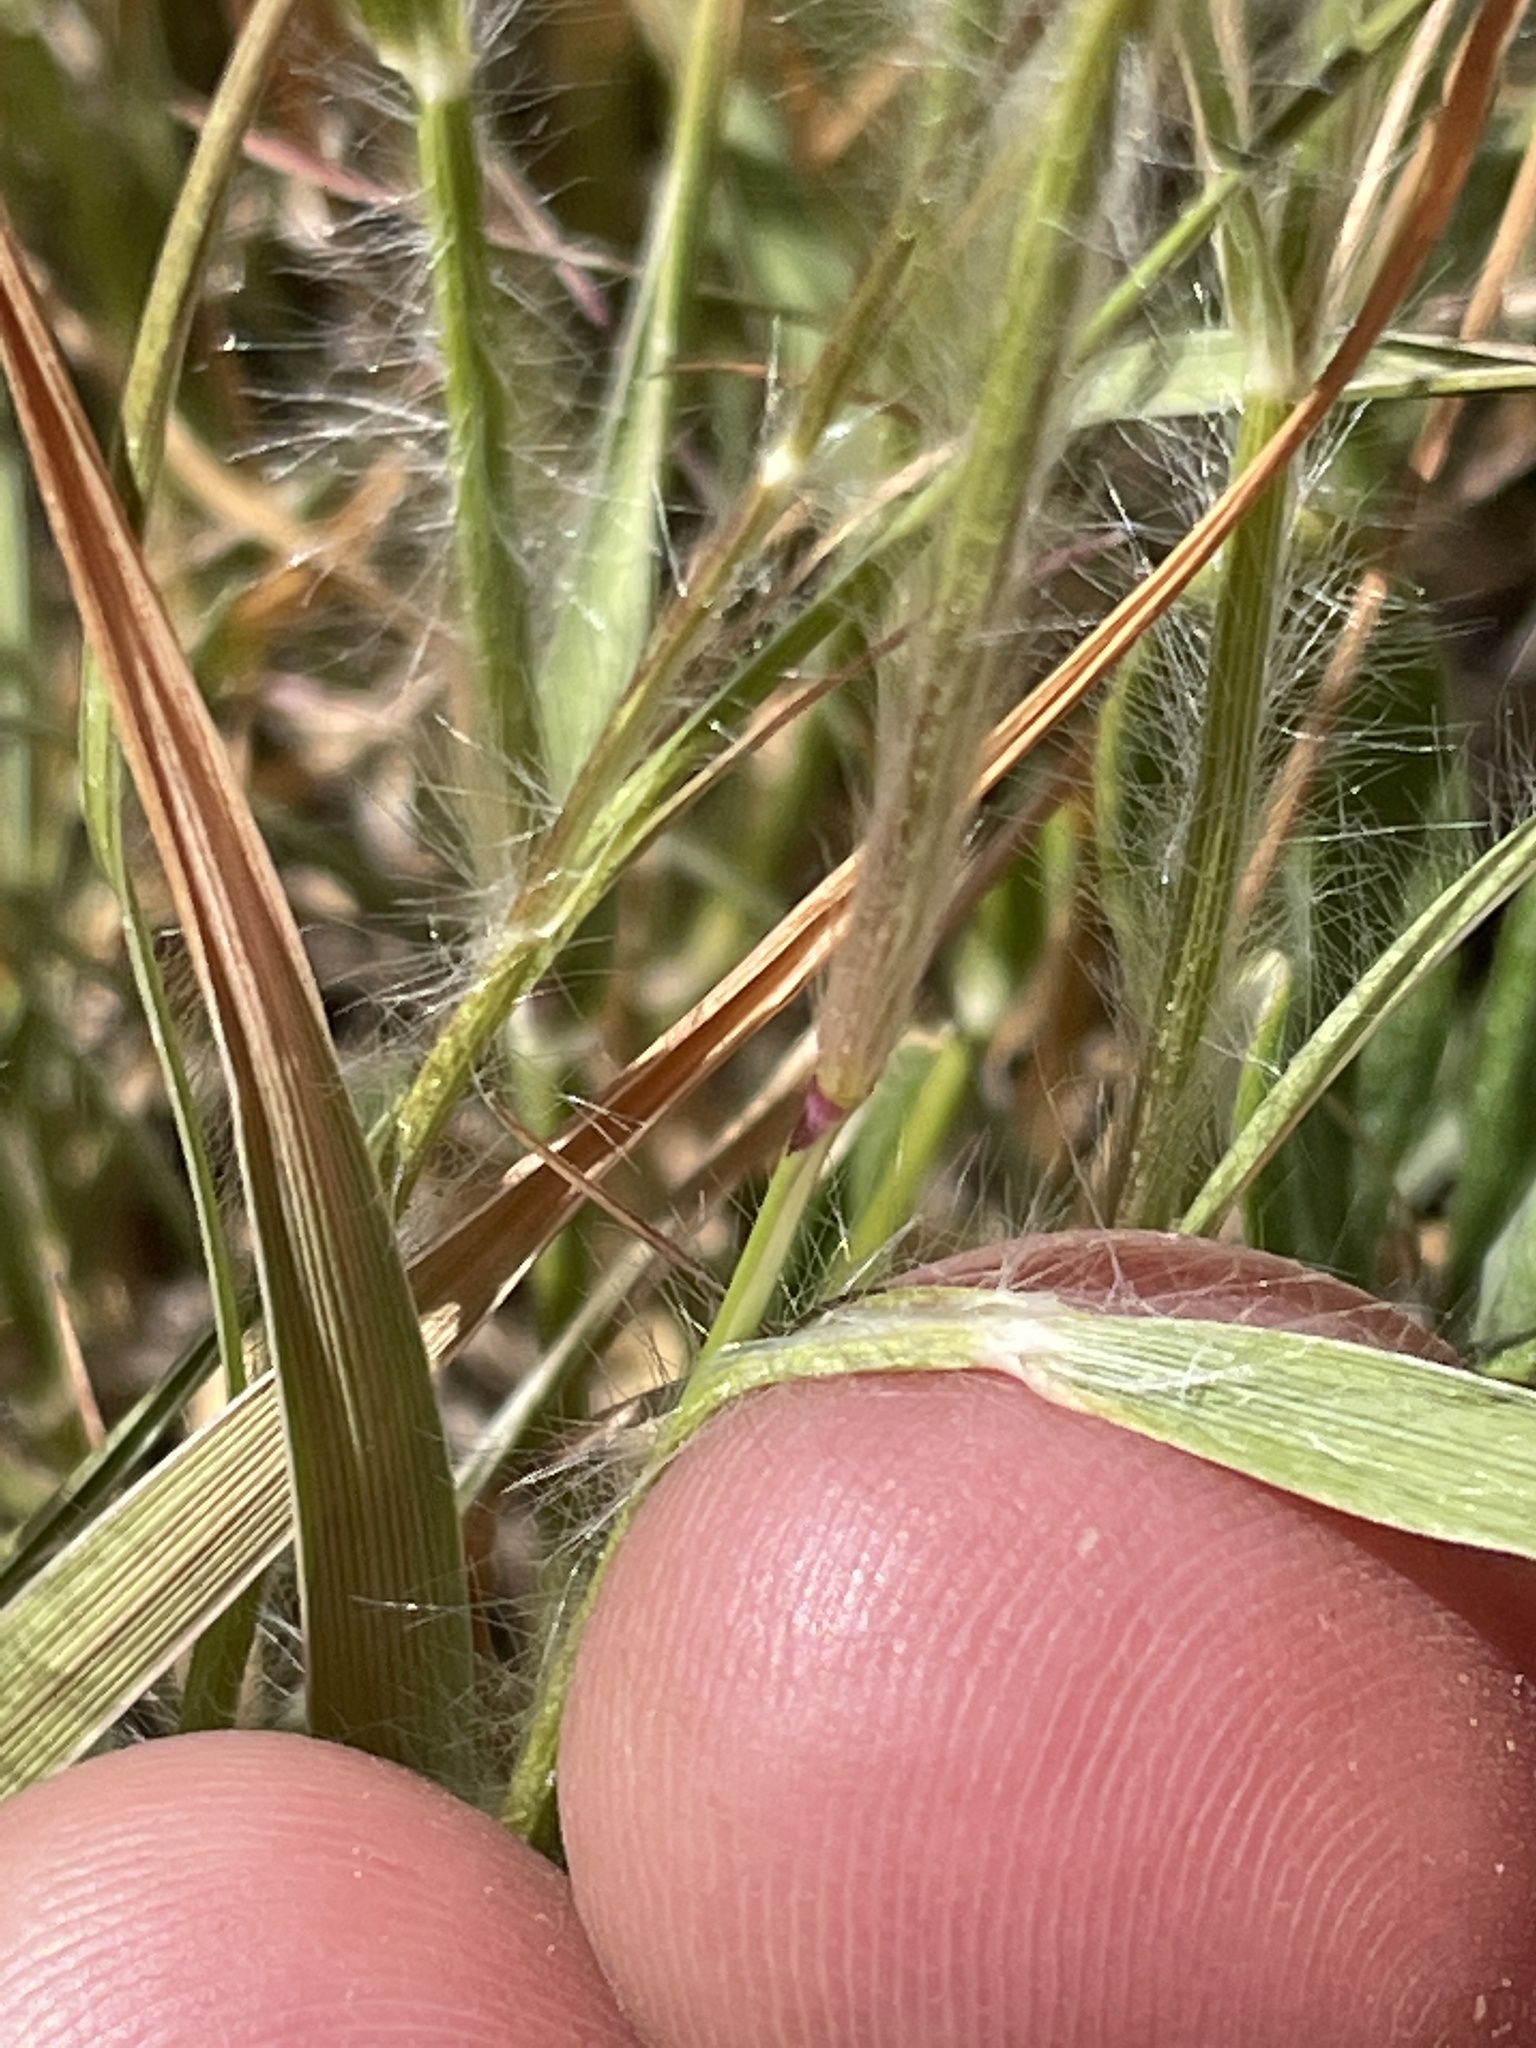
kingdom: Plantae
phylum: Tracheophyta
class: Liliopsida
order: Poales
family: Poaceae
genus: Danthonia
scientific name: Danthonia unispicata
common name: Few-flowered oatgrass
